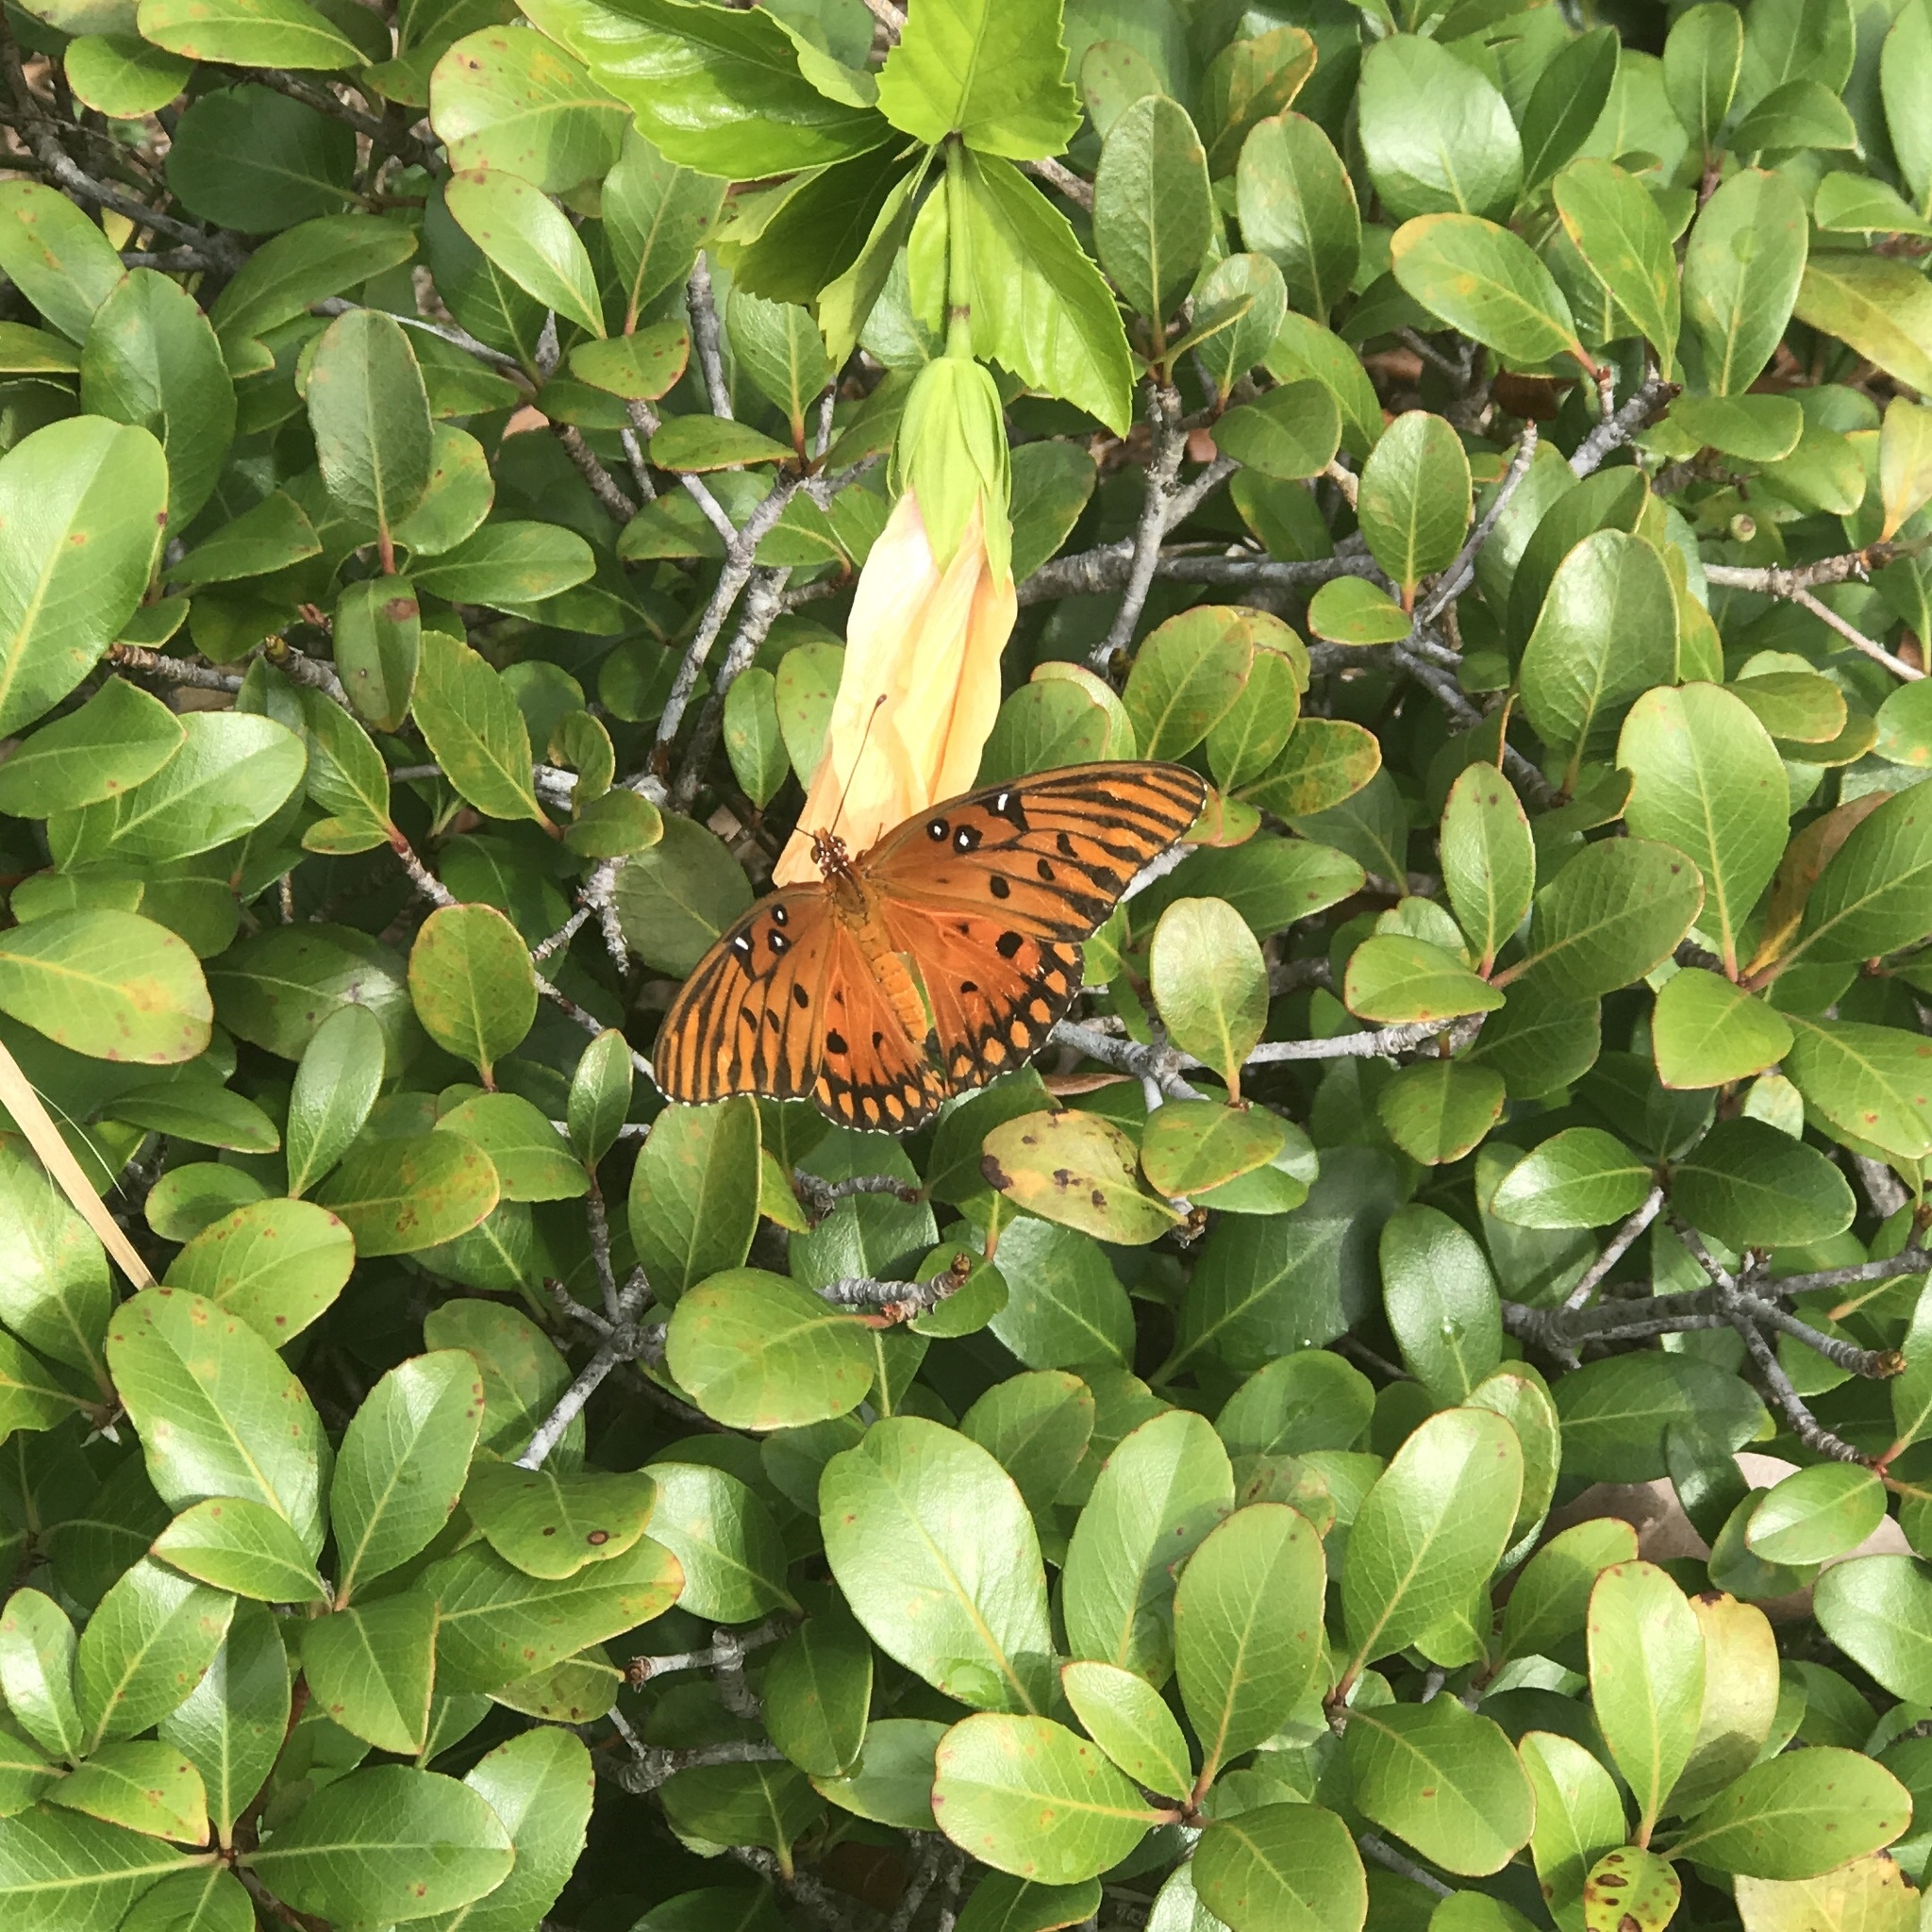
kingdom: Animalia
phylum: Arthropoda
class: Insecta
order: Lepidoptera
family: Nymphalidae
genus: Dione
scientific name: Dione vanillae
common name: Gulf fritillary
